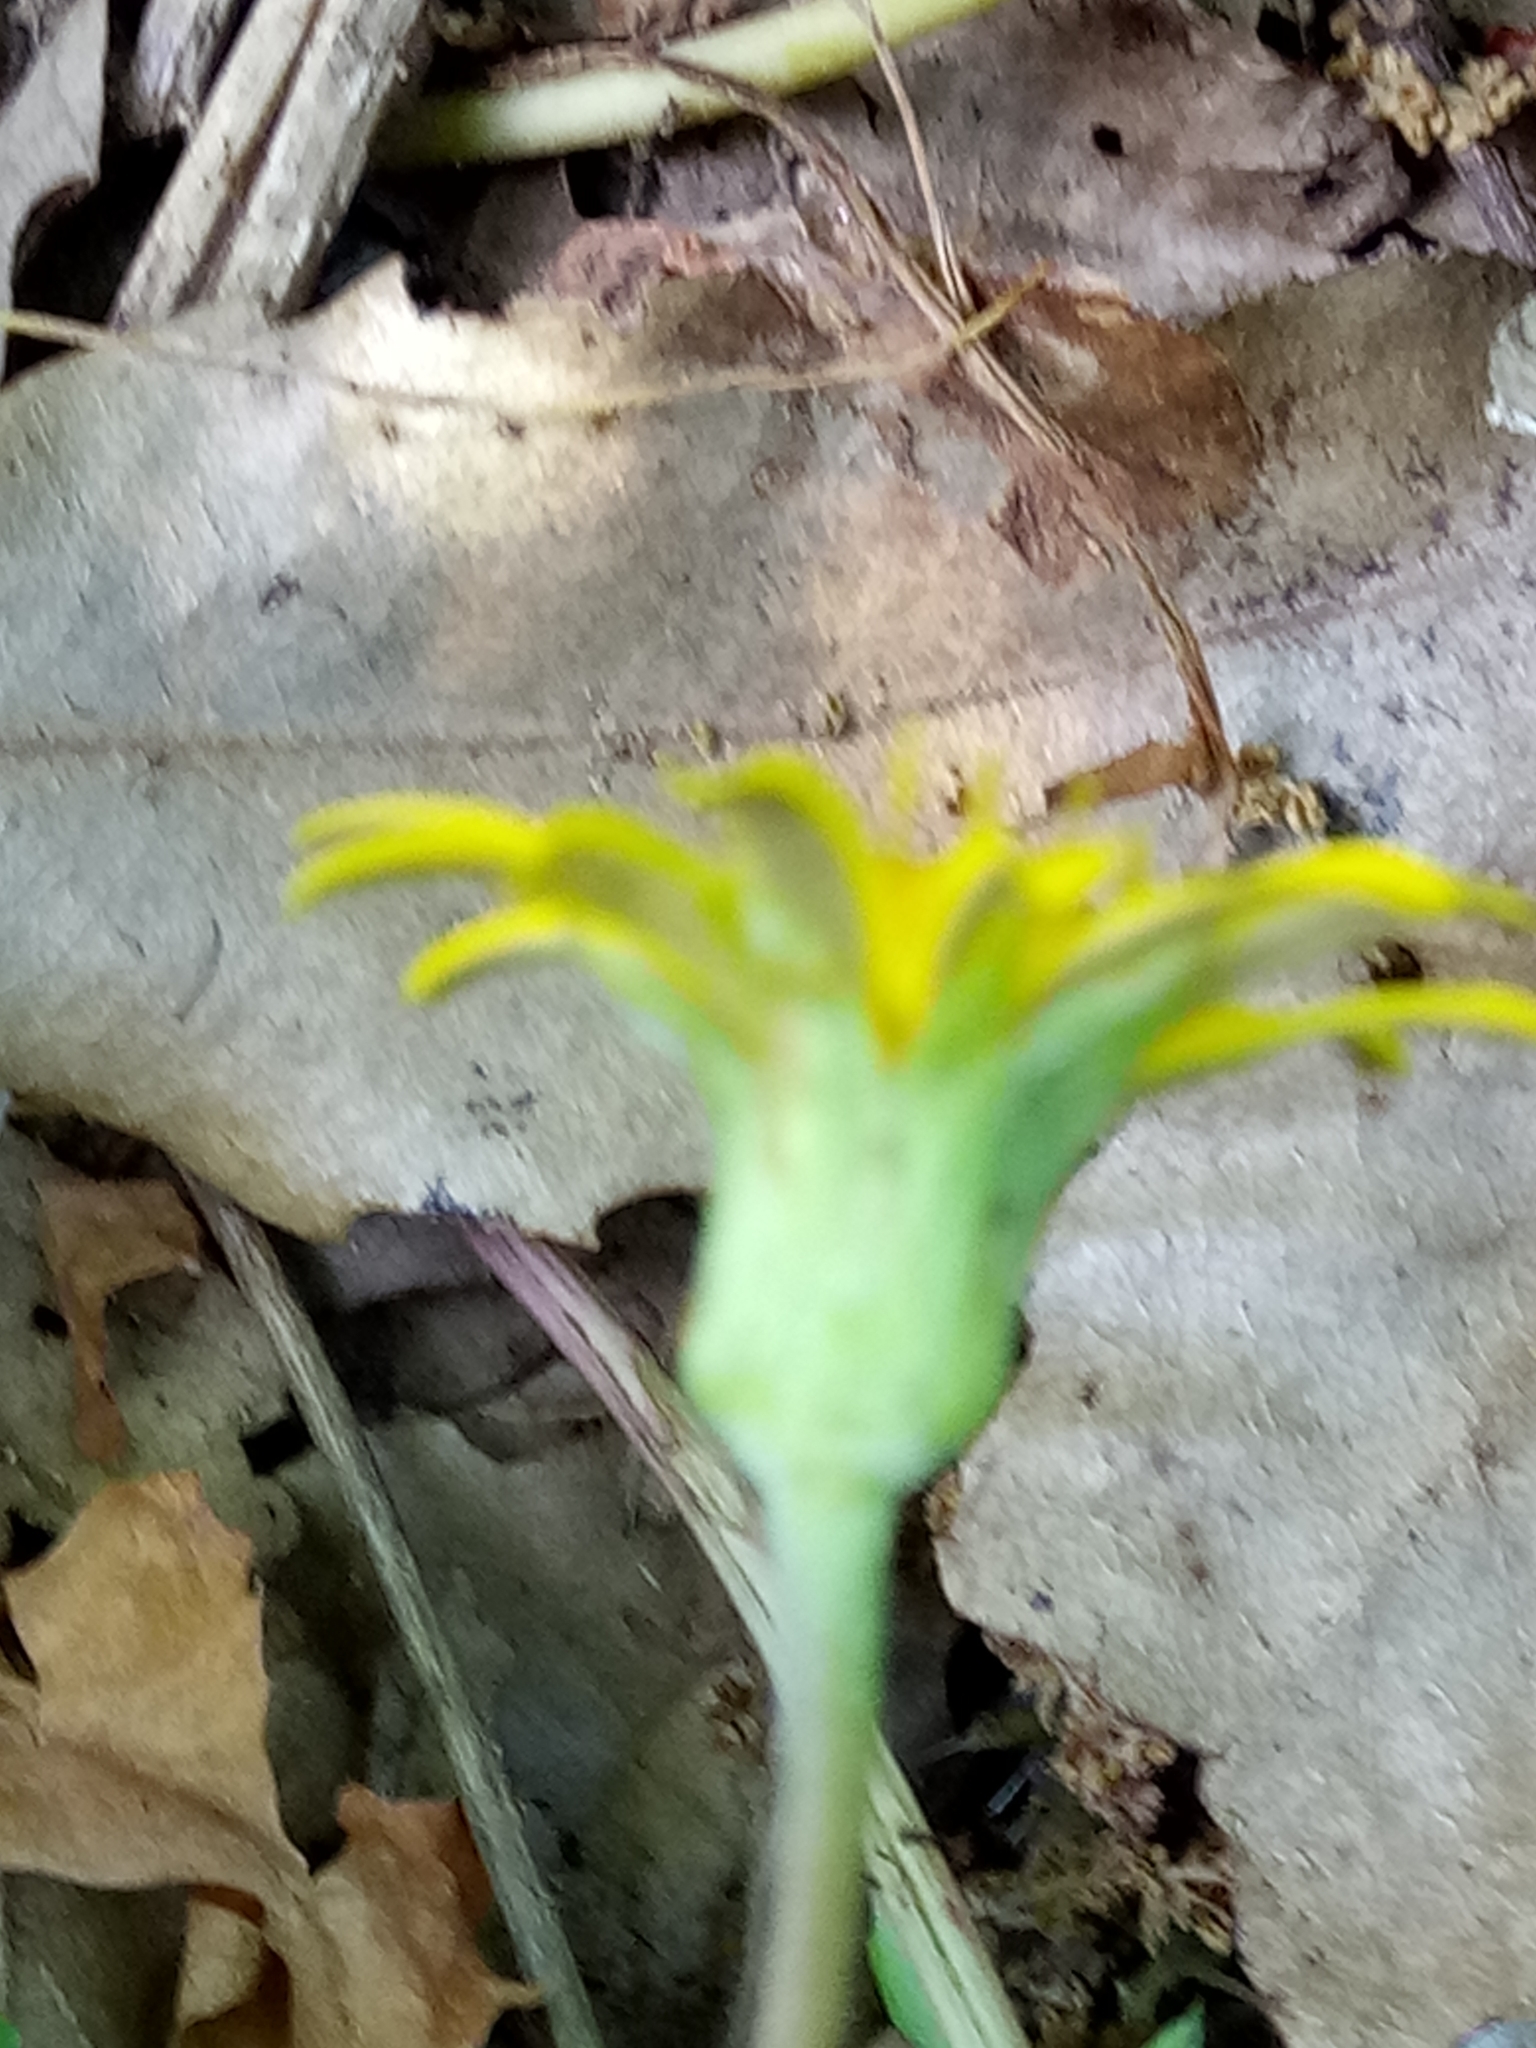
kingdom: Plantae
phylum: Tracheophyta
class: Magnoliopsida
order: Asterales
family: Asteraceae
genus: Hyoseris
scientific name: Hyoseris radiata
